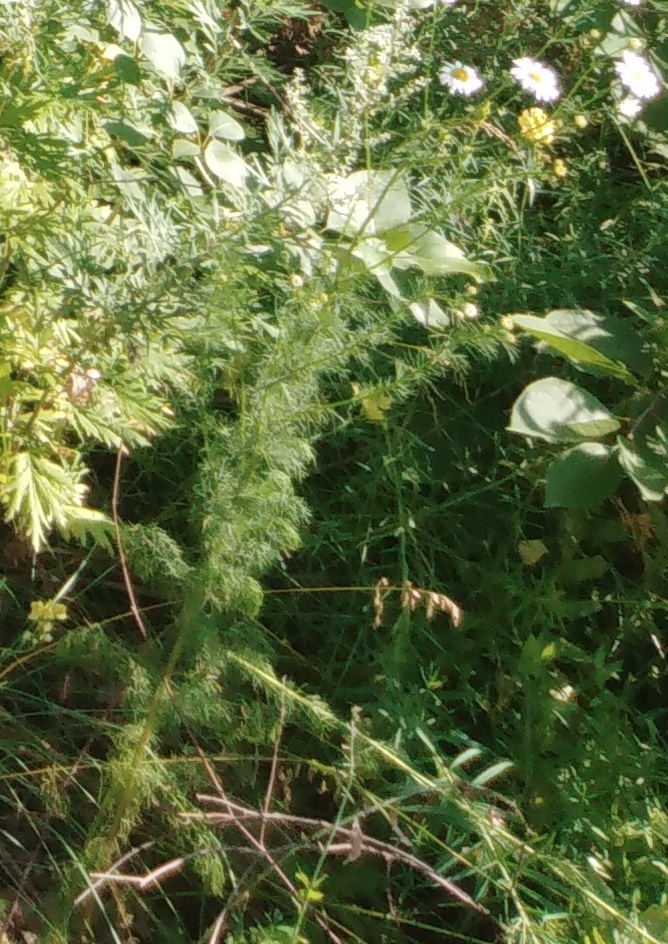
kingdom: Plantae
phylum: Tracheophyta
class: Magnoliopsida
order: Asterales
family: Asteraceae
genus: Tripleurospermum
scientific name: Tripleurospermum inodorum
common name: Scentless mayweed
